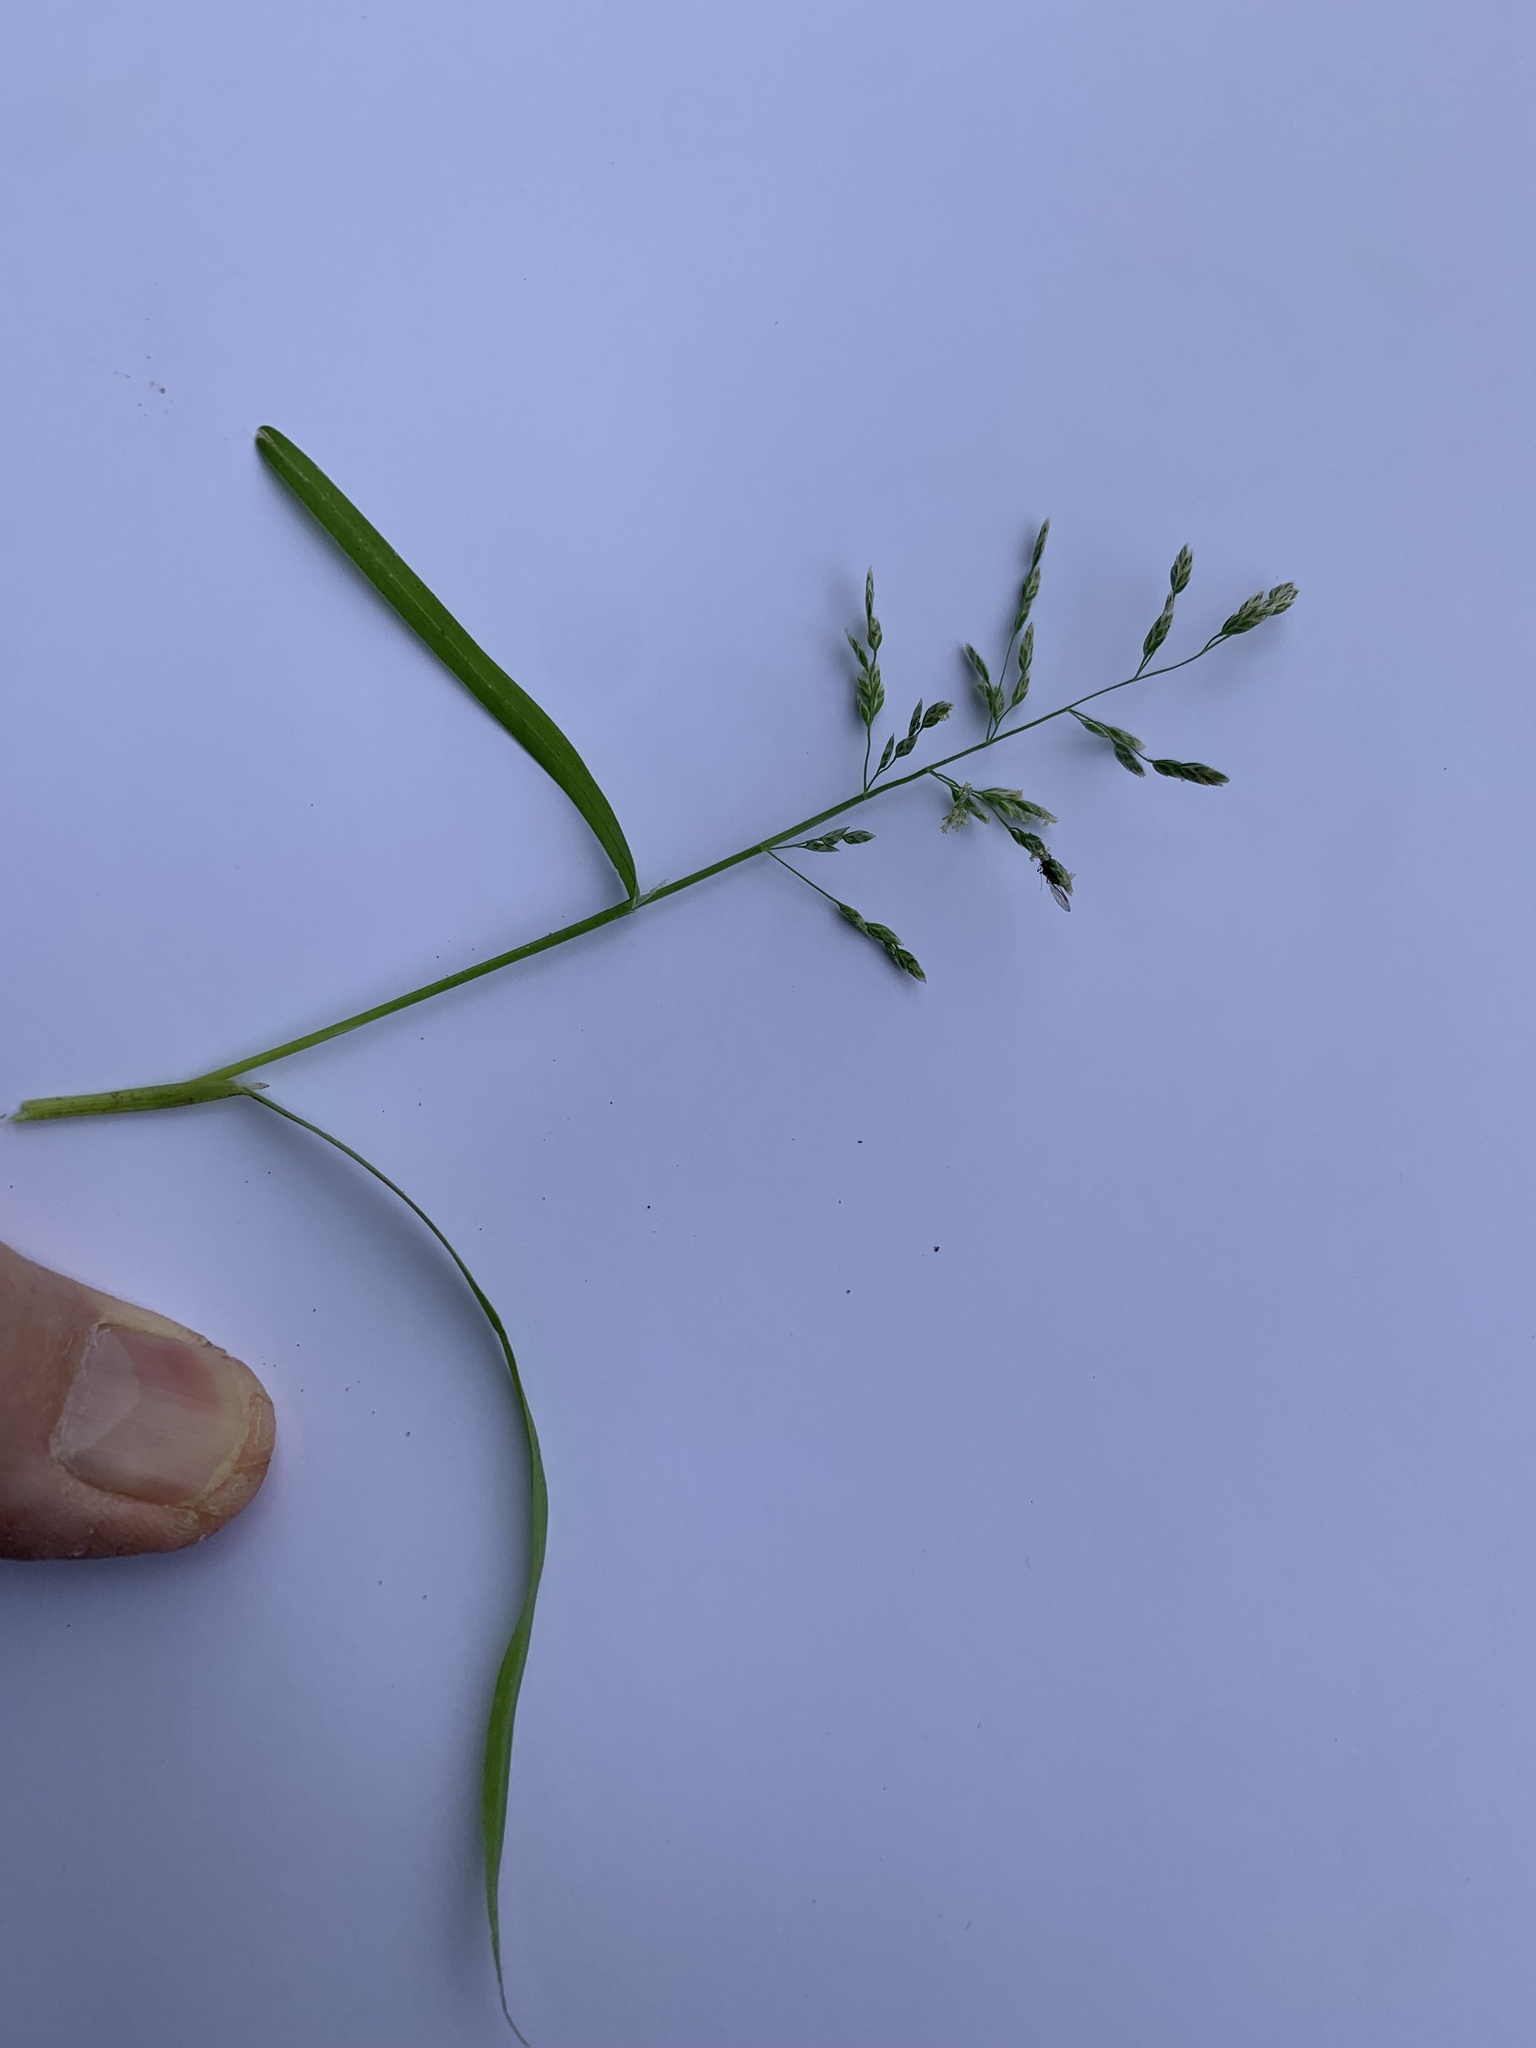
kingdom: Plantae
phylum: Tracheophyta
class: Liliopsida
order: Poales
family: Poaceae
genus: Poa
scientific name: Poa annua
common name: Annual bluegrass
